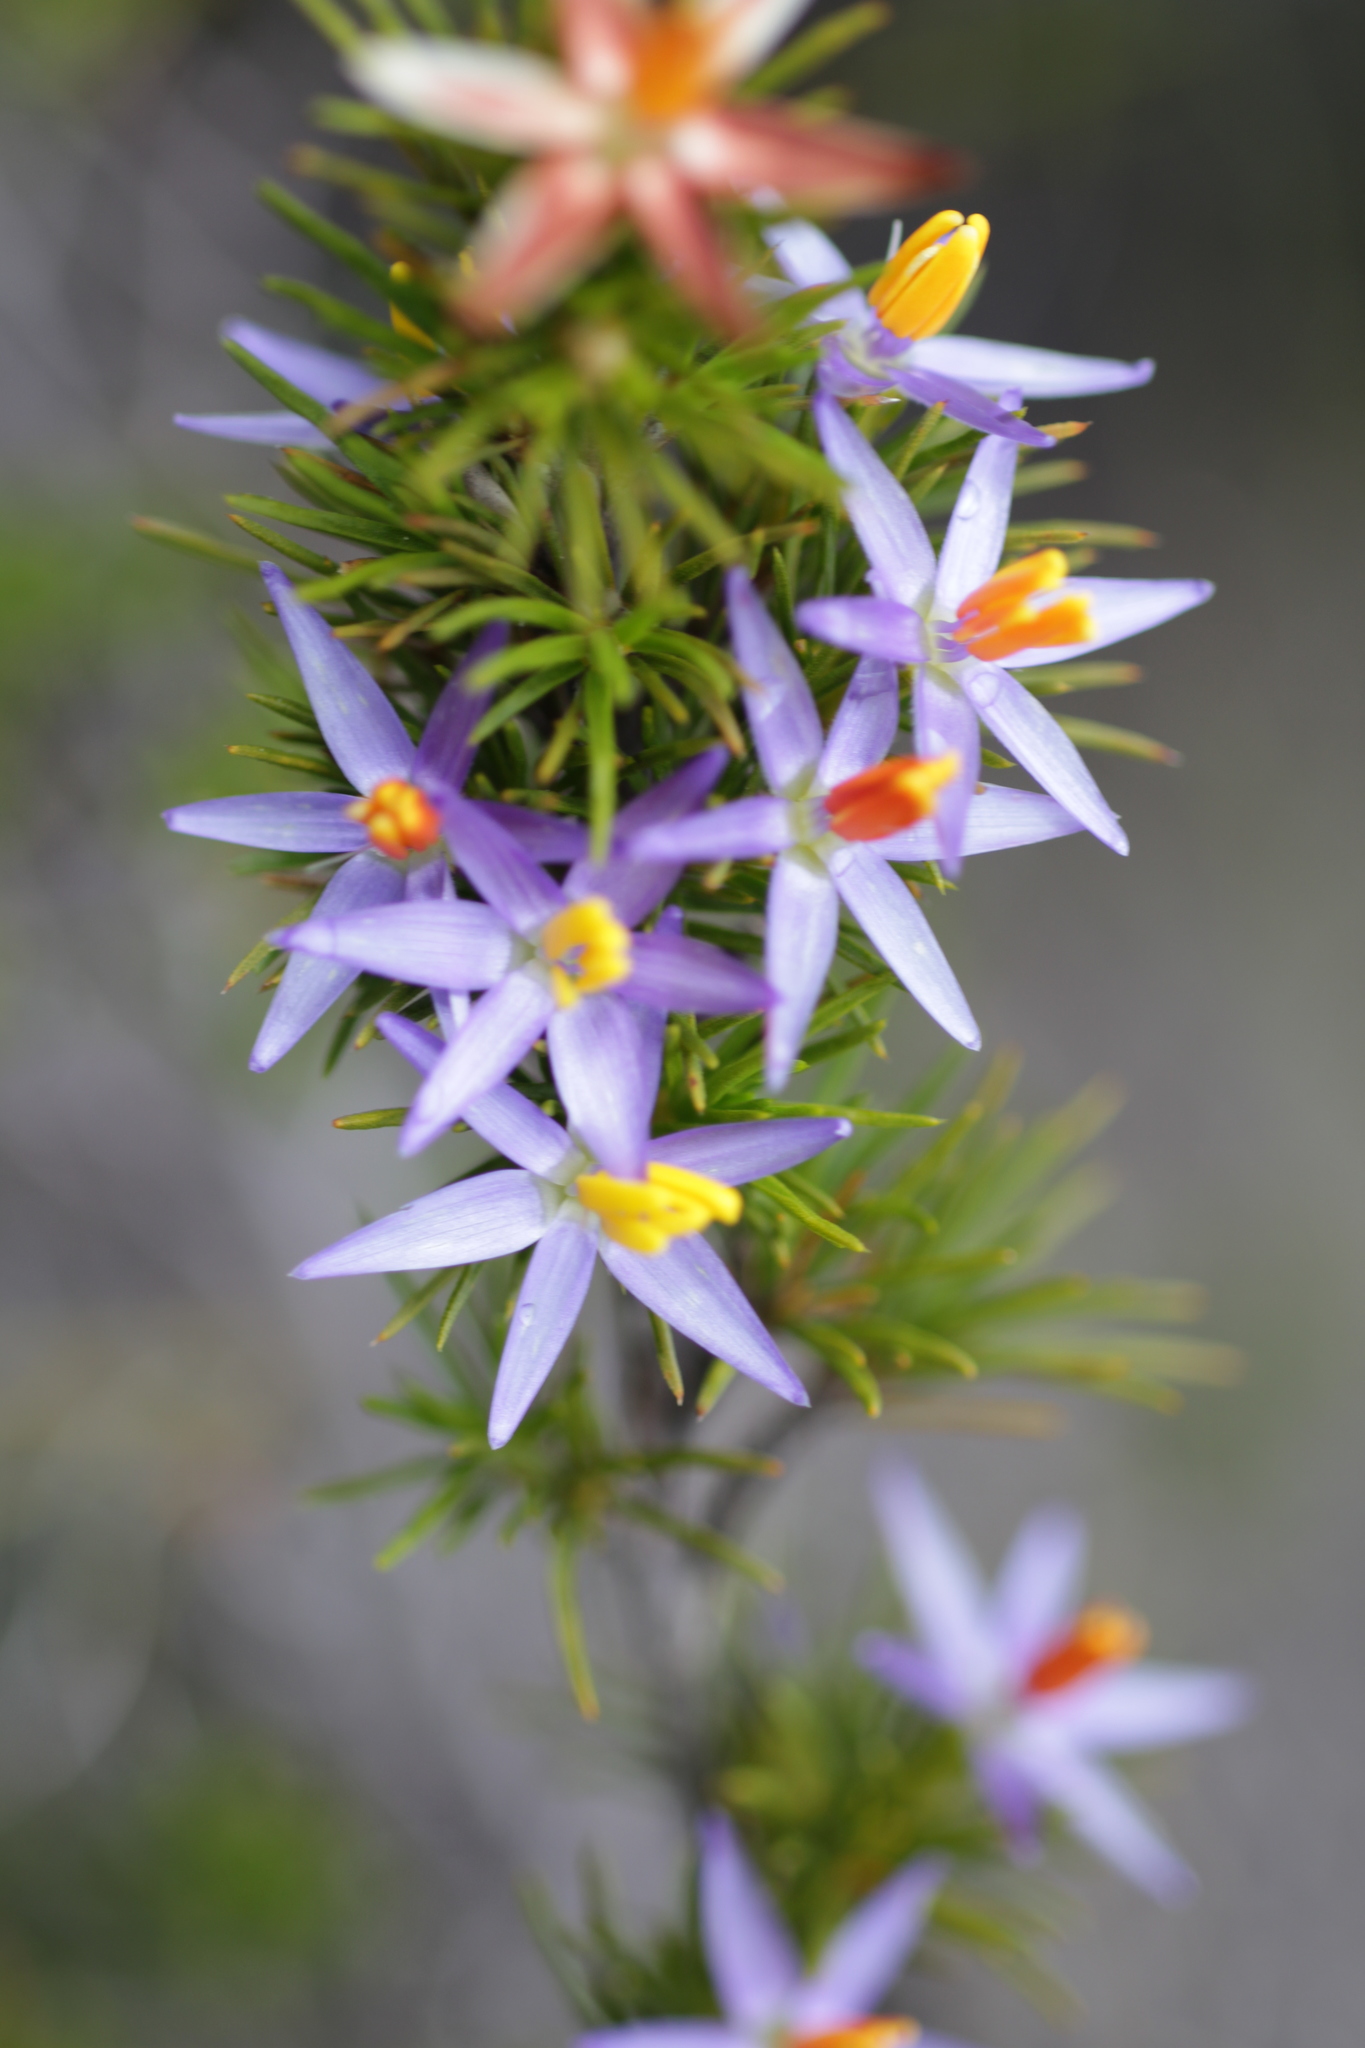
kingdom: Plantae
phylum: Tracheophyta
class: Liliopsida
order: Arecales
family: Dasypogonaceae
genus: Calectasia
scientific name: Calectasia narragara
